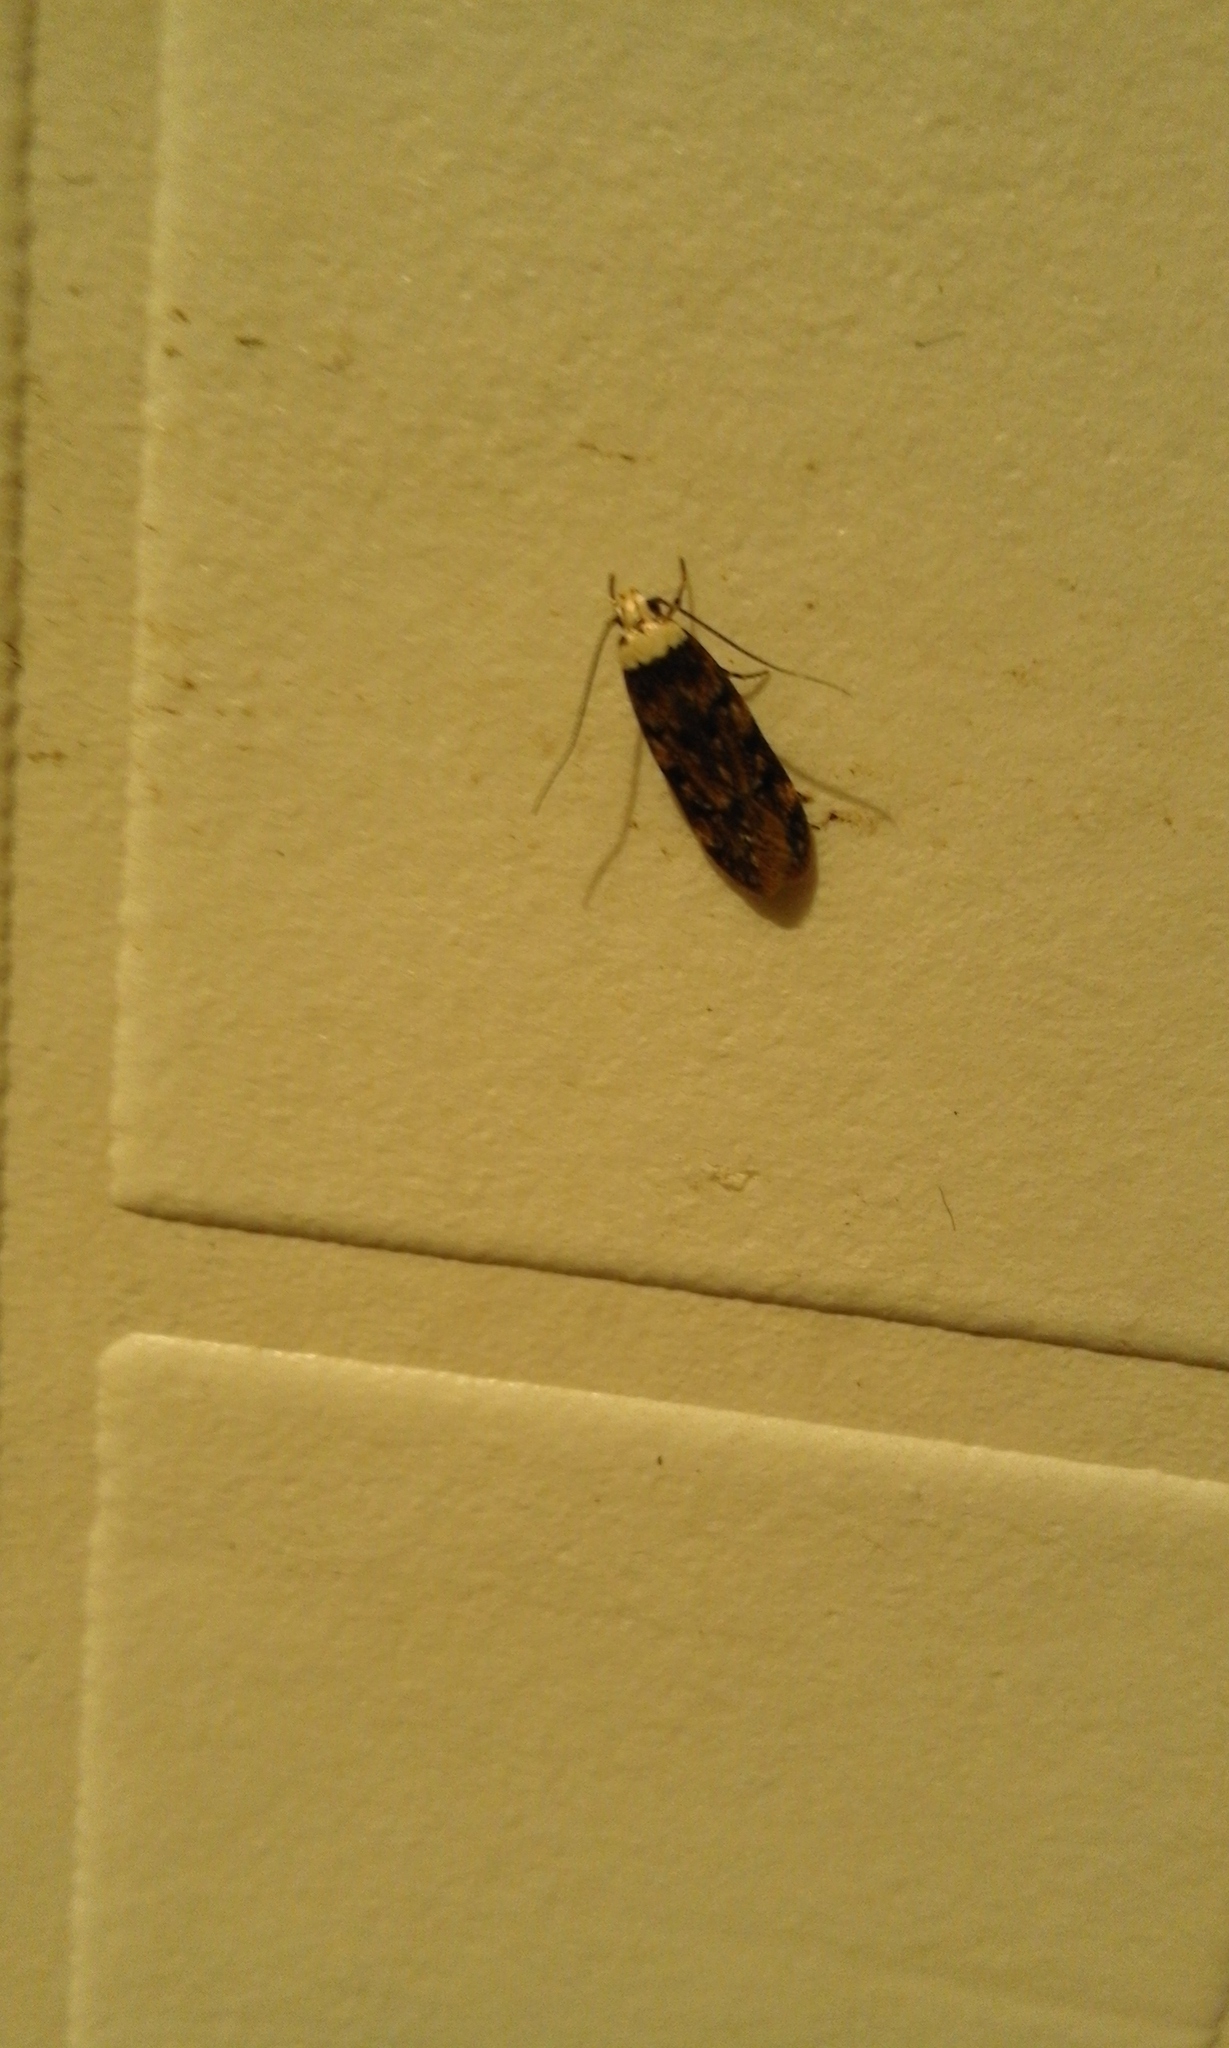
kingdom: Animalia
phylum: Arthropoda
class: Insecta
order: Lepidoptera
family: Oecophoridae
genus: Endrosis
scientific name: Endrosis sarcitrella
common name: White-shouldered house moth
